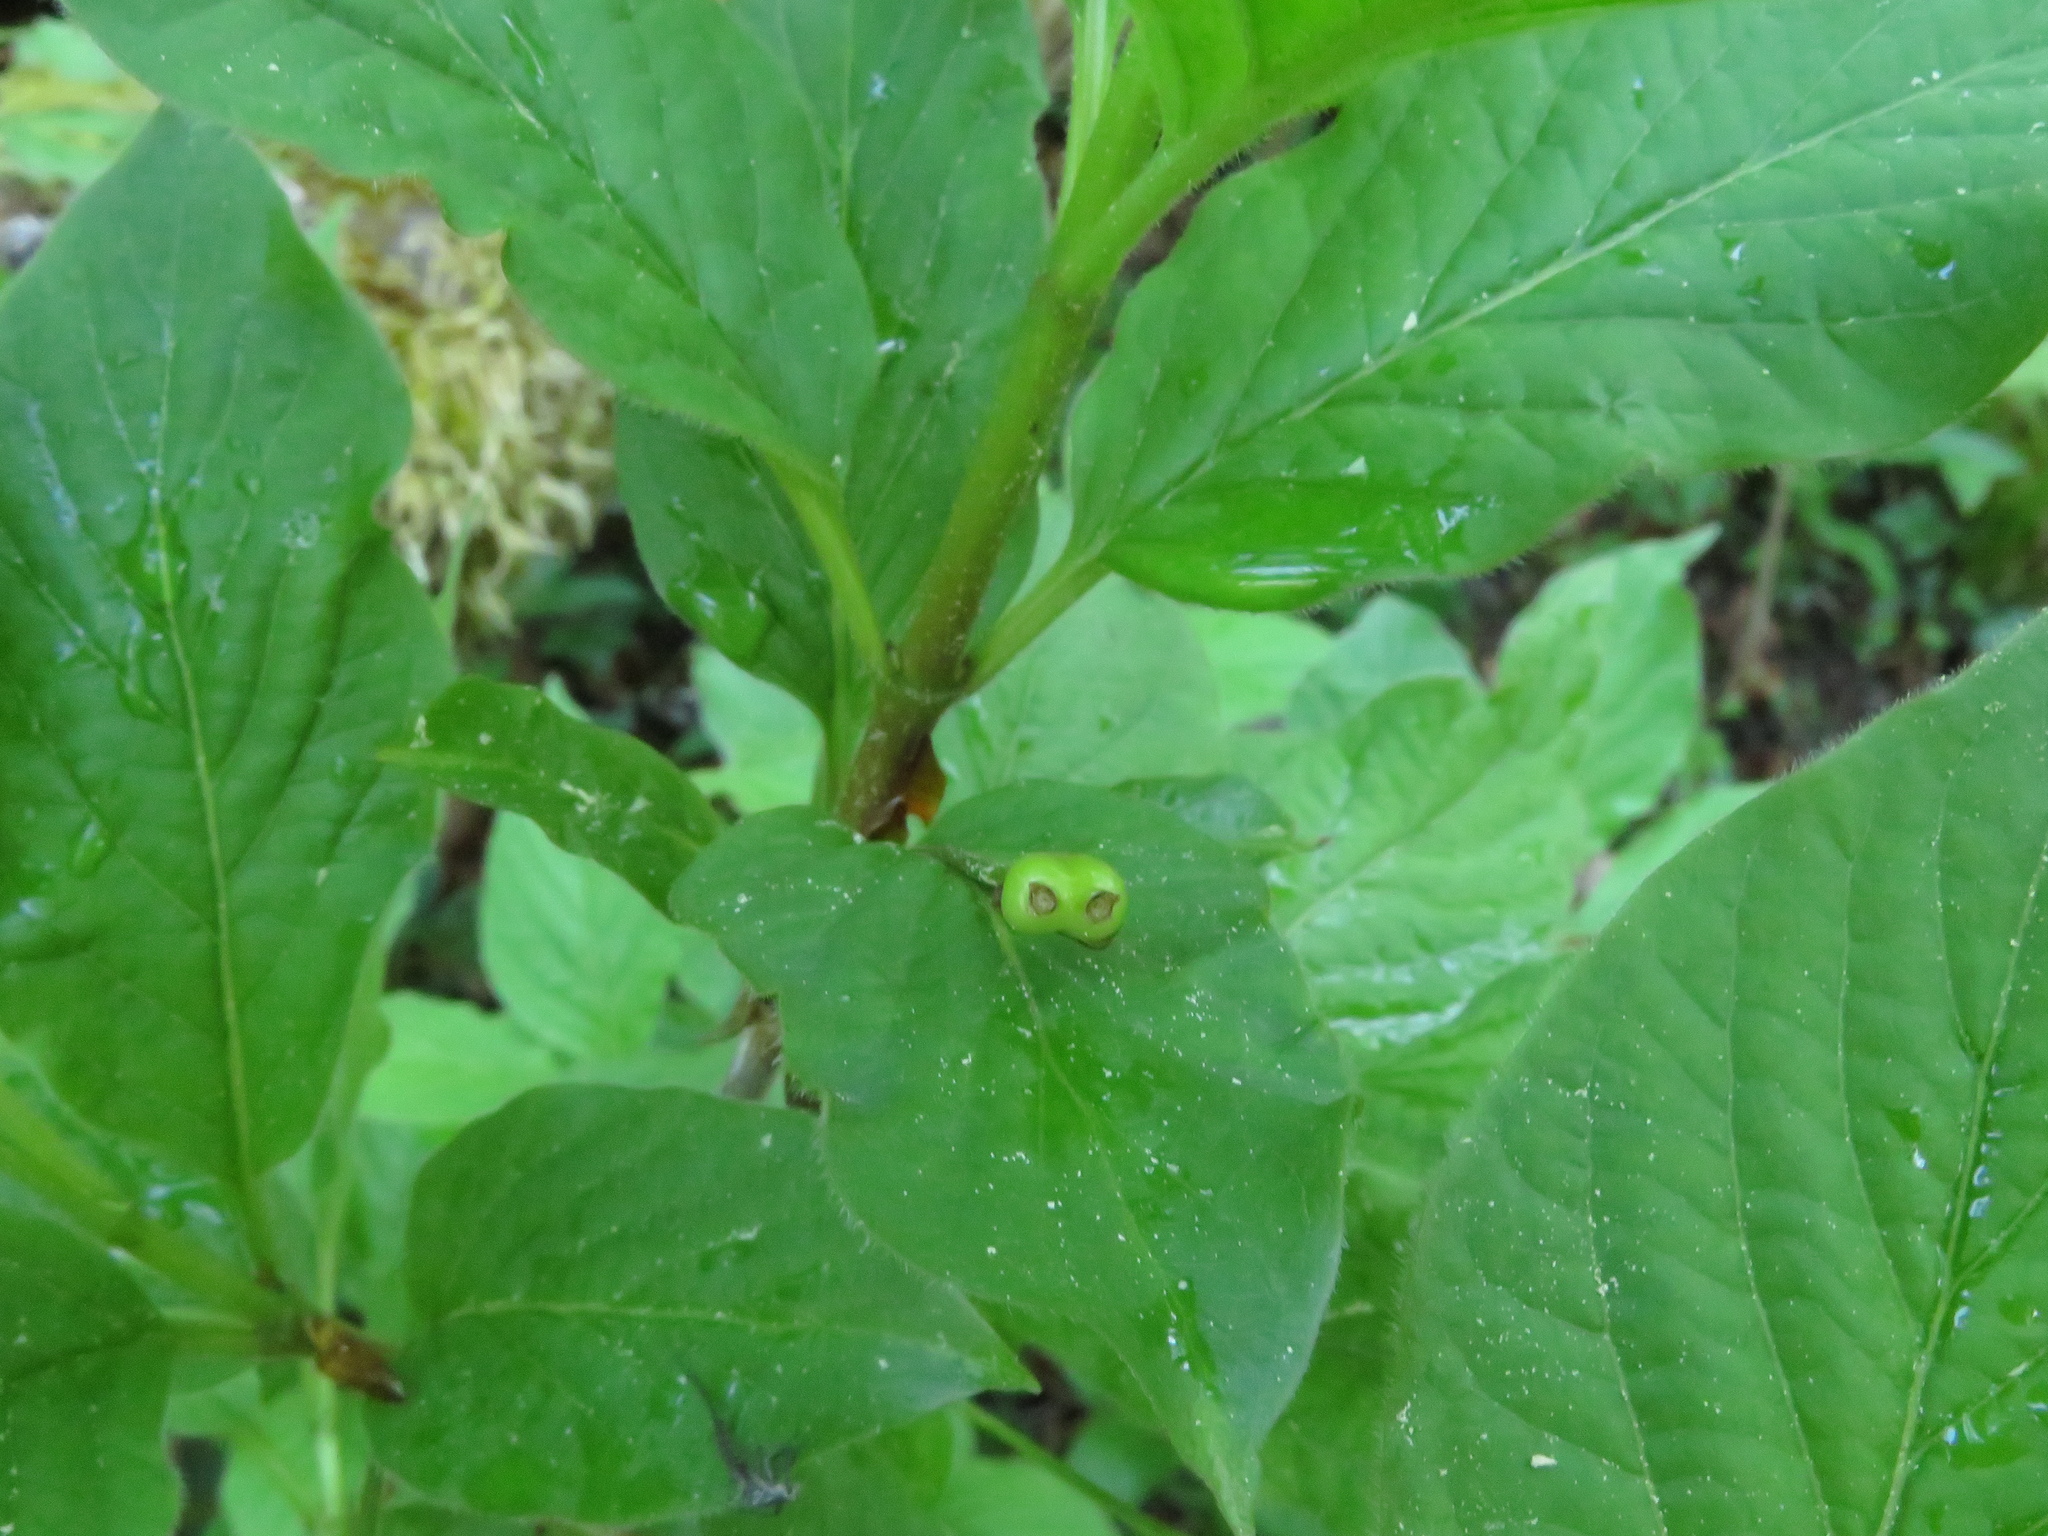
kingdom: Plantae
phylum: Tracheophyta
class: Magnoliopsida
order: Dipsacales
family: Caprifoliaceae
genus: Lonicera
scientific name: Lonicera alpigena
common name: Alpine honeysuckle
